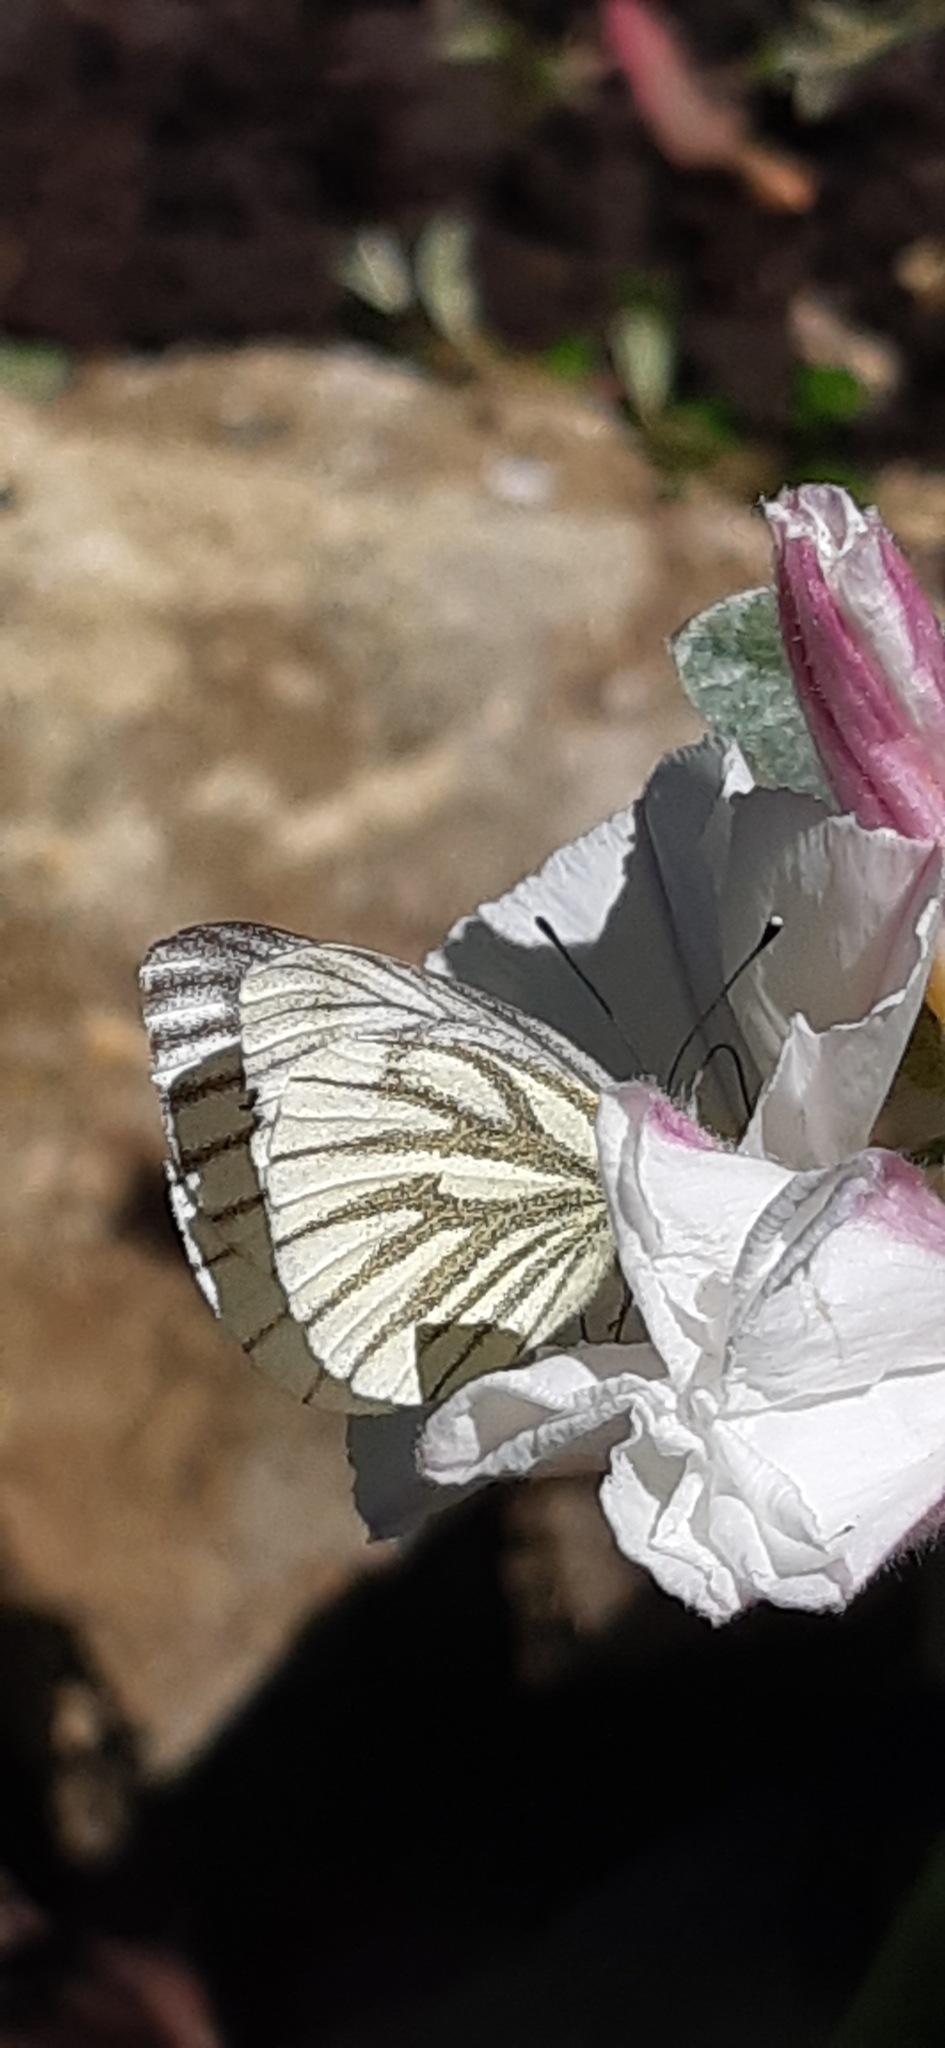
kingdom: Animalia
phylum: Arthropoda
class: Insecta
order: Lepidoptera
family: Pieridae
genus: Pieris
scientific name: Pieris napi
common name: Green-veined white
